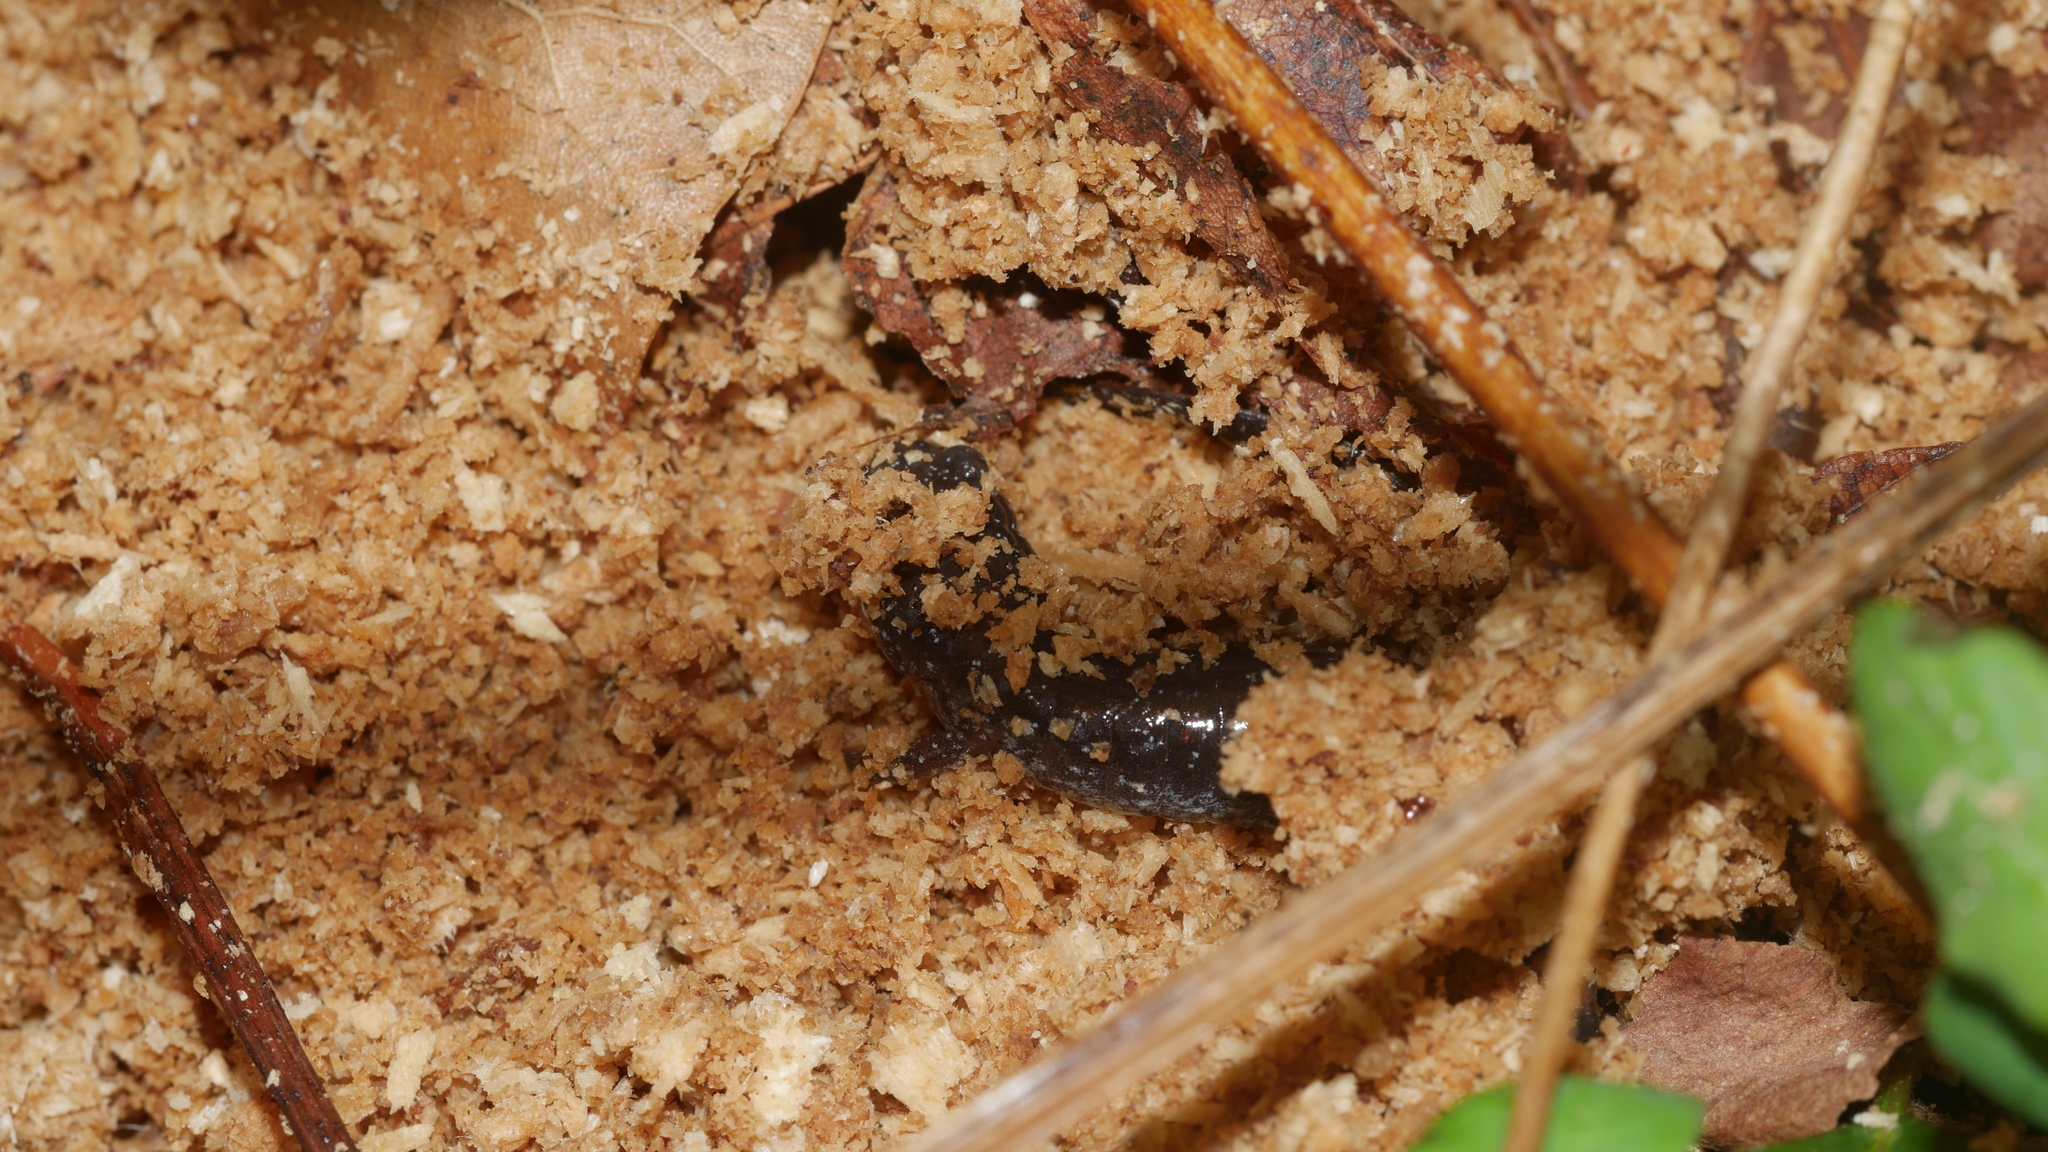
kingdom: Animalia
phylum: Chordata
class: Amphibia
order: Caudata
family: Plethodontidae
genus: Plethodon
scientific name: Plethodon cinereus
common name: Redback salamander
